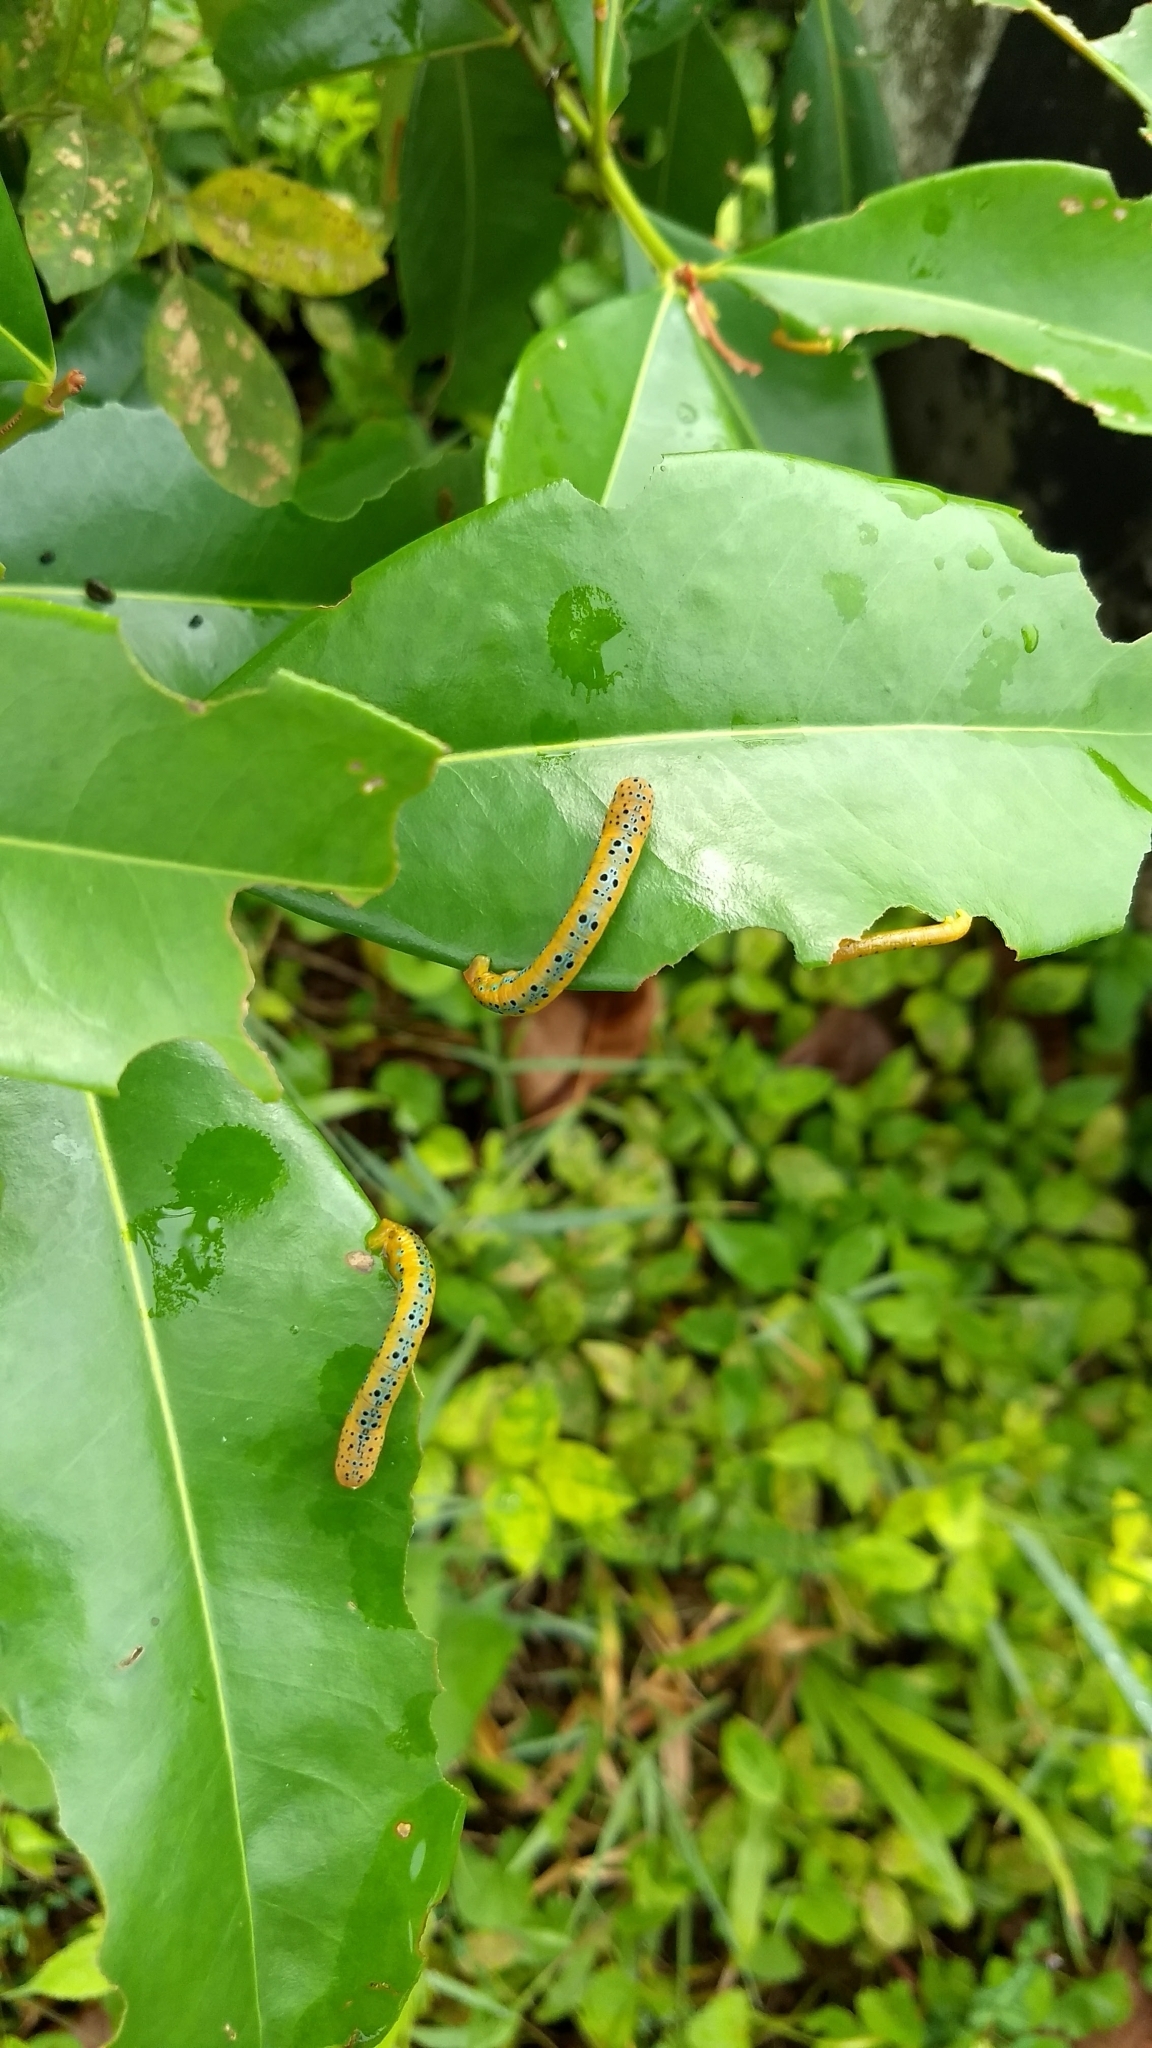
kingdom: Animalia
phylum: Arthropoda
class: Insecta
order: Lepidoptera
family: Geometridae
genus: Dysphania
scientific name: Dysphania percota
